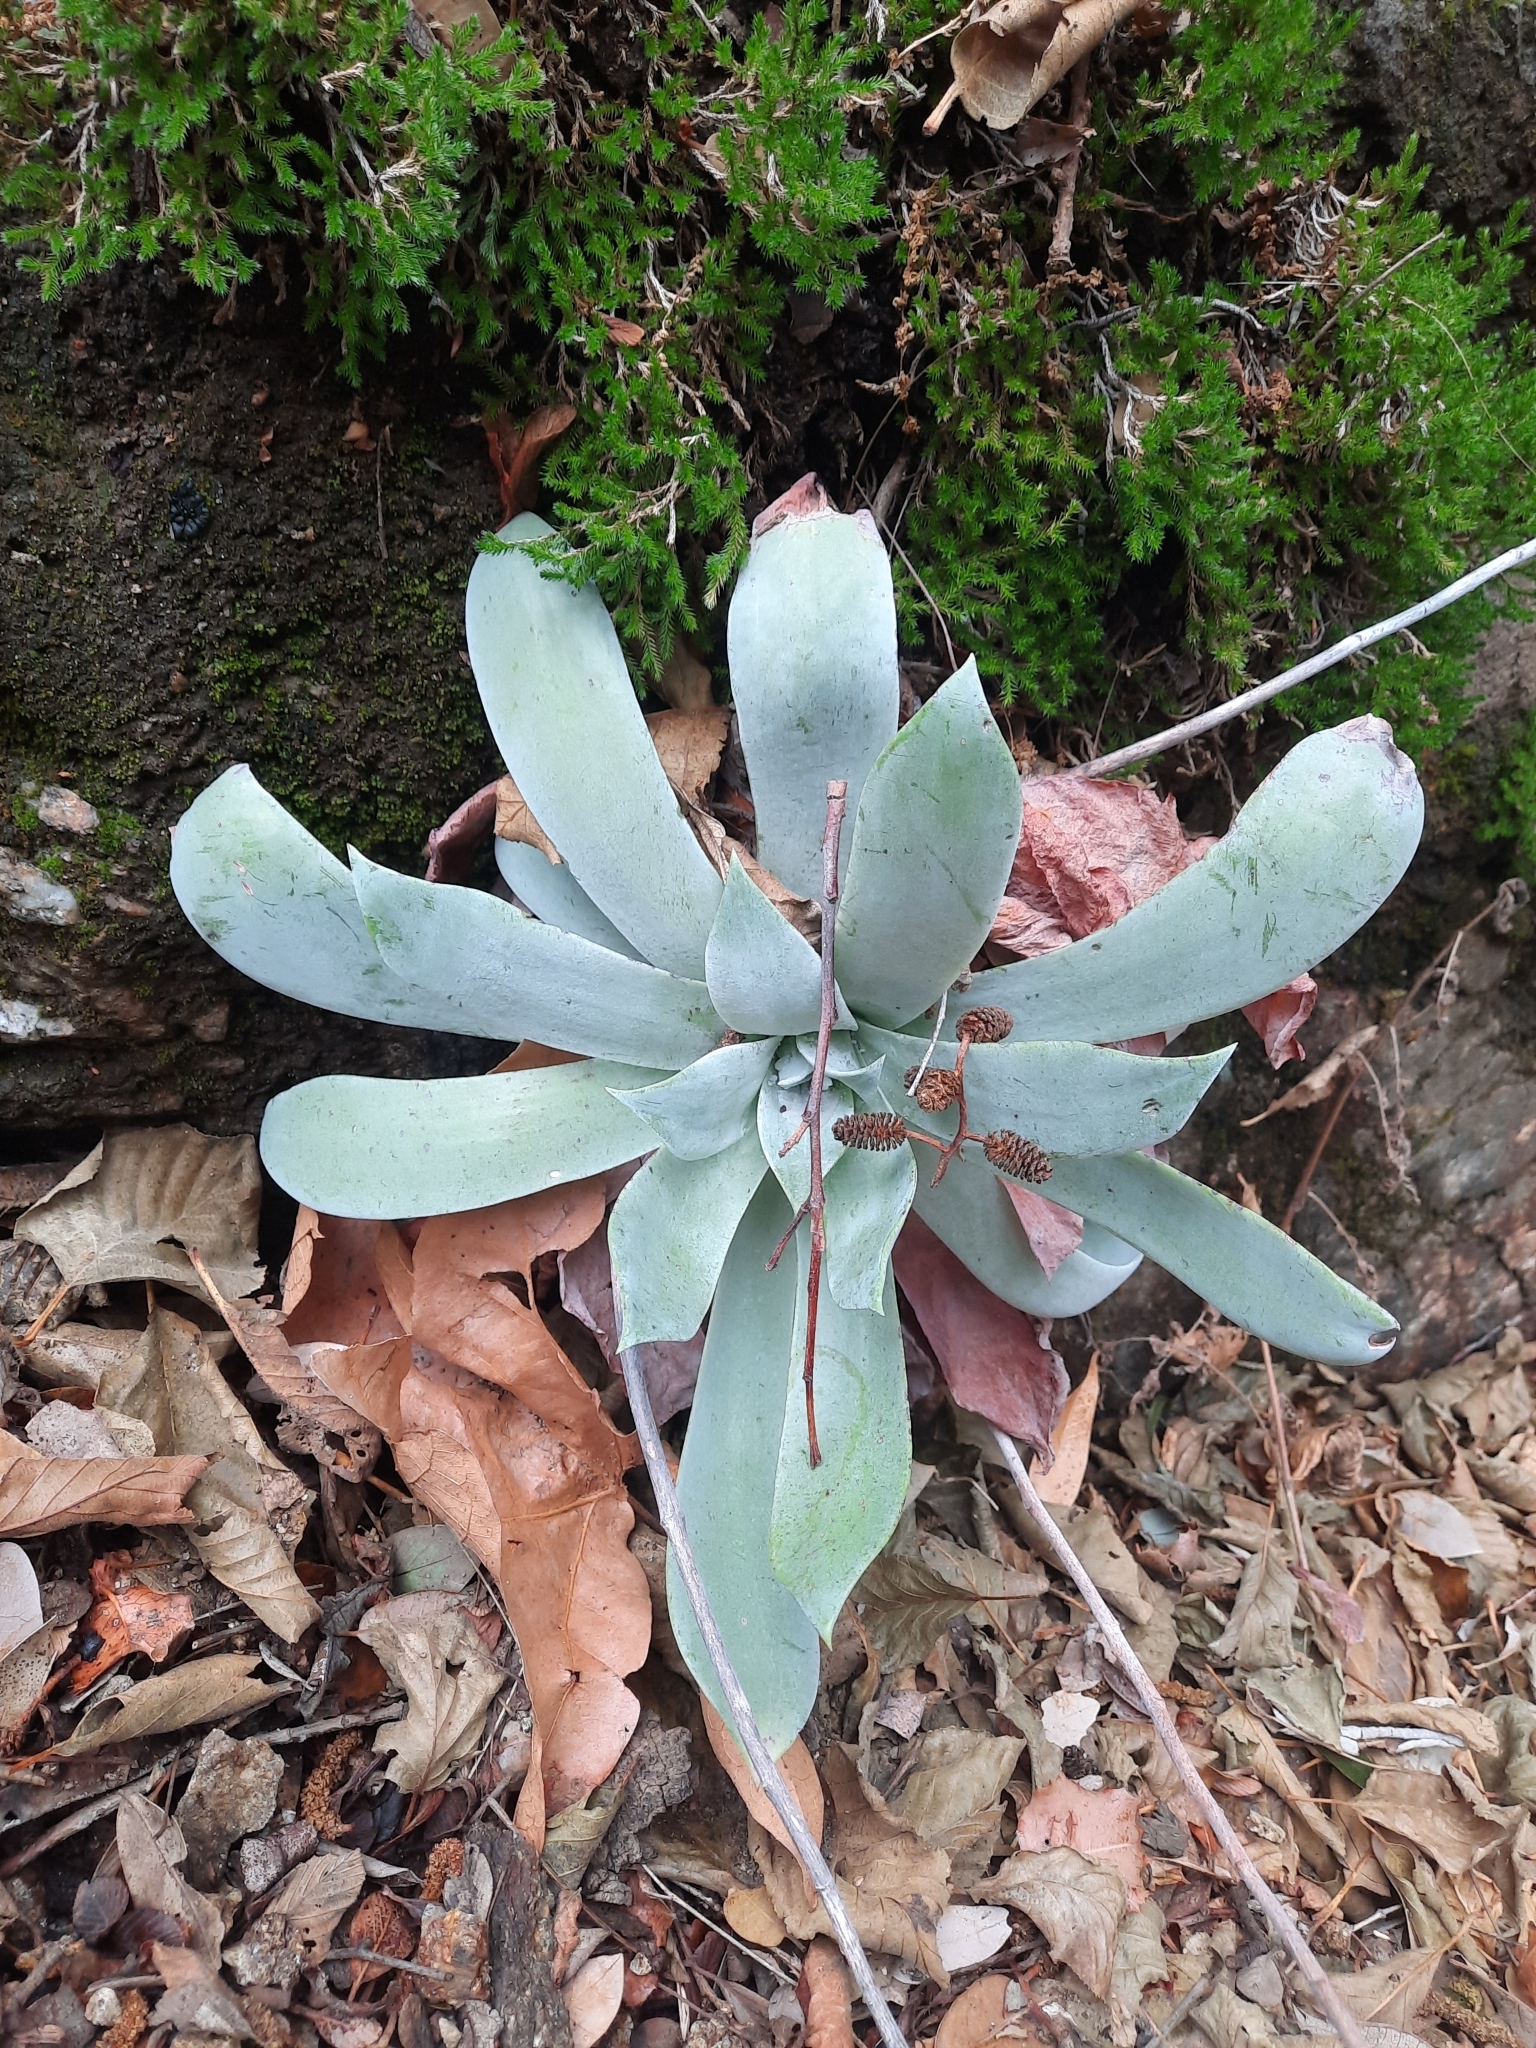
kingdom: Plantae
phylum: Tracheophyta
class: Magnoliopsida
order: Saxifragales
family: Crassulaceae
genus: Dudleya
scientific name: Dudleya pulverulenta
